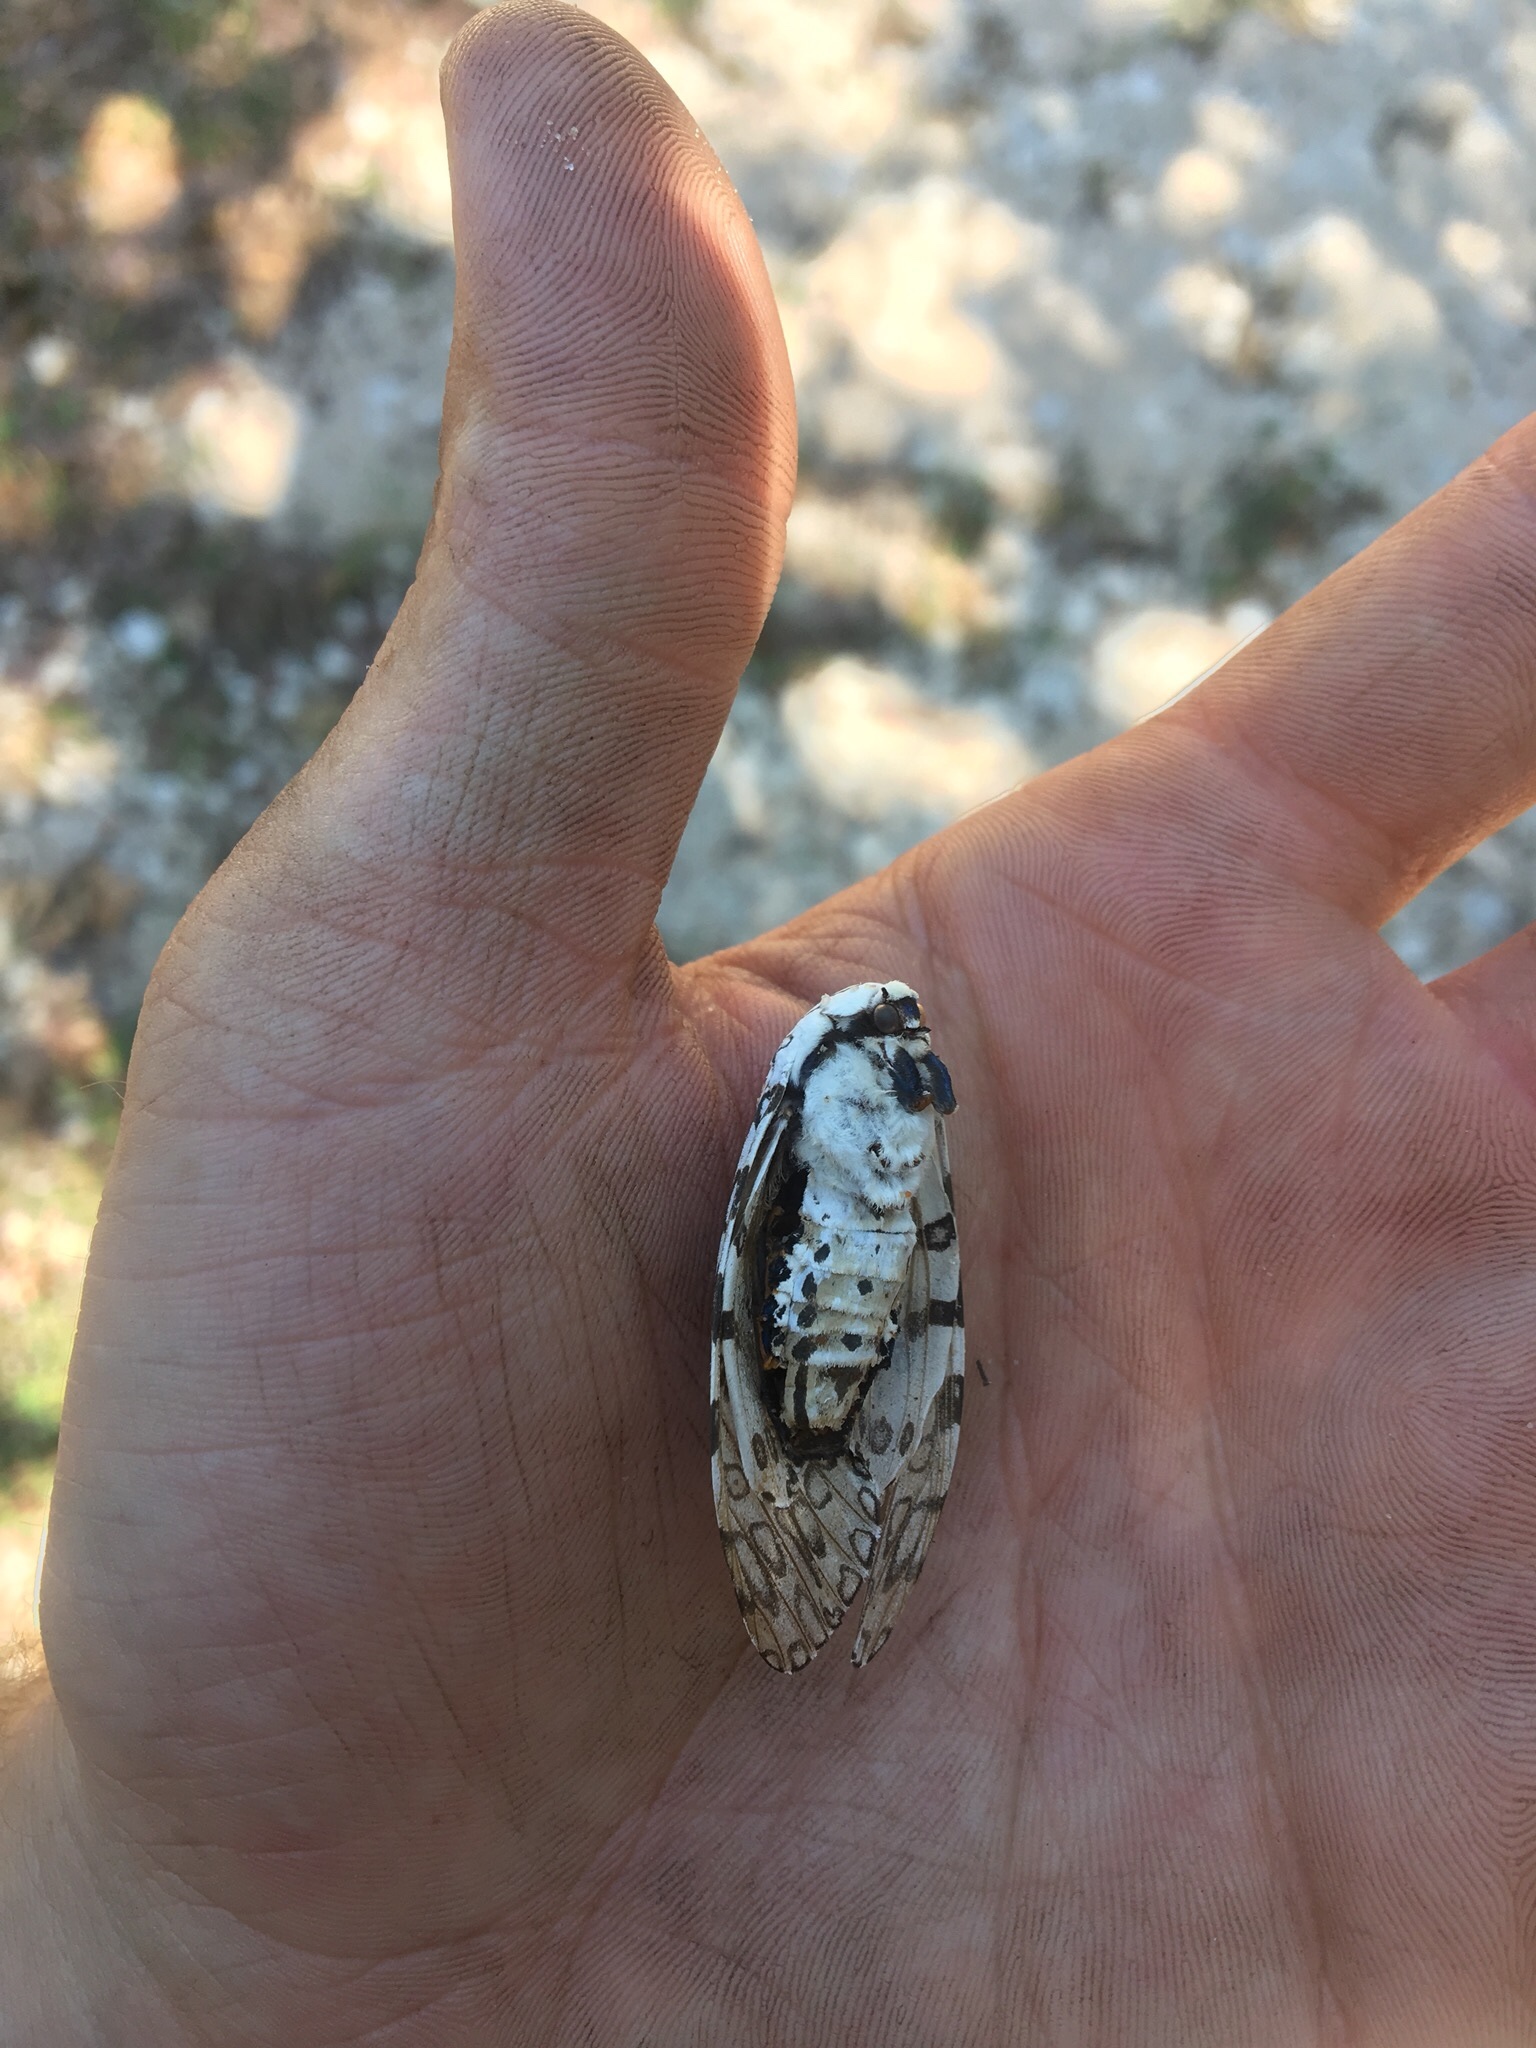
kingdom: Animalia
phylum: Arthropoda
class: Insecta
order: Lepidoptera
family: Erebidae
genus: Hypercompe
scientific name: Hypercompe scribonia
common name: Giant leopard moth
